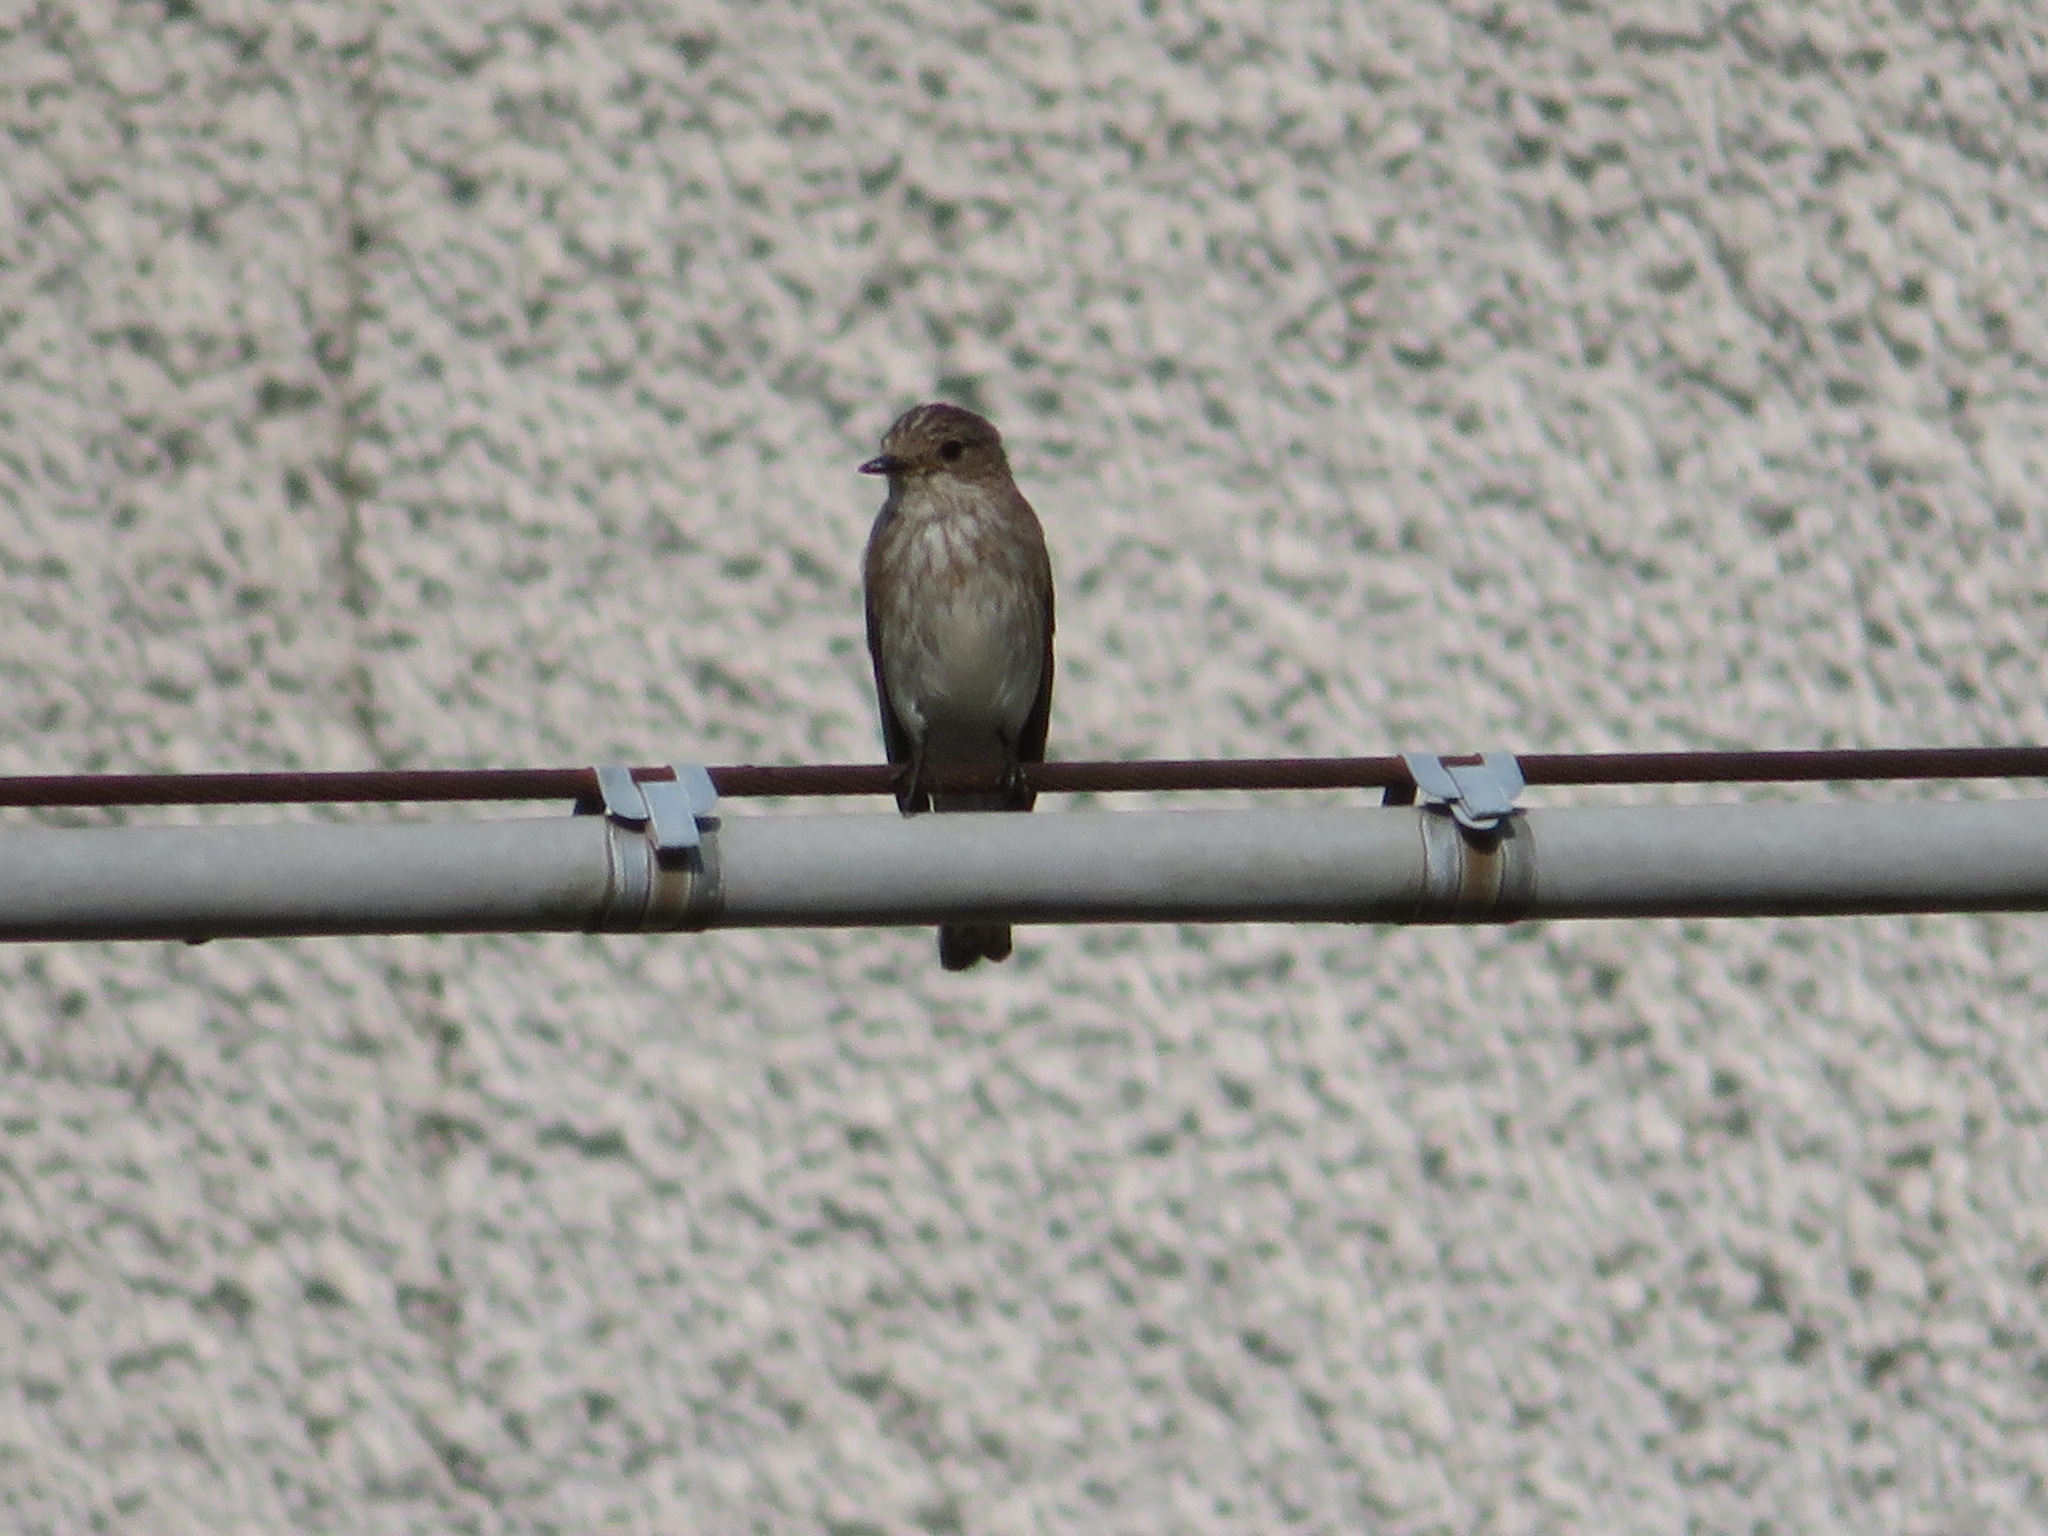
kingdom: Animalia
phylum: Chordata
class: Aves
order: Passeriformes
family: Muscicapidae
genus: Muscicapa
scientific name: Muscicapa striata
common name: Spotted flycatcher
